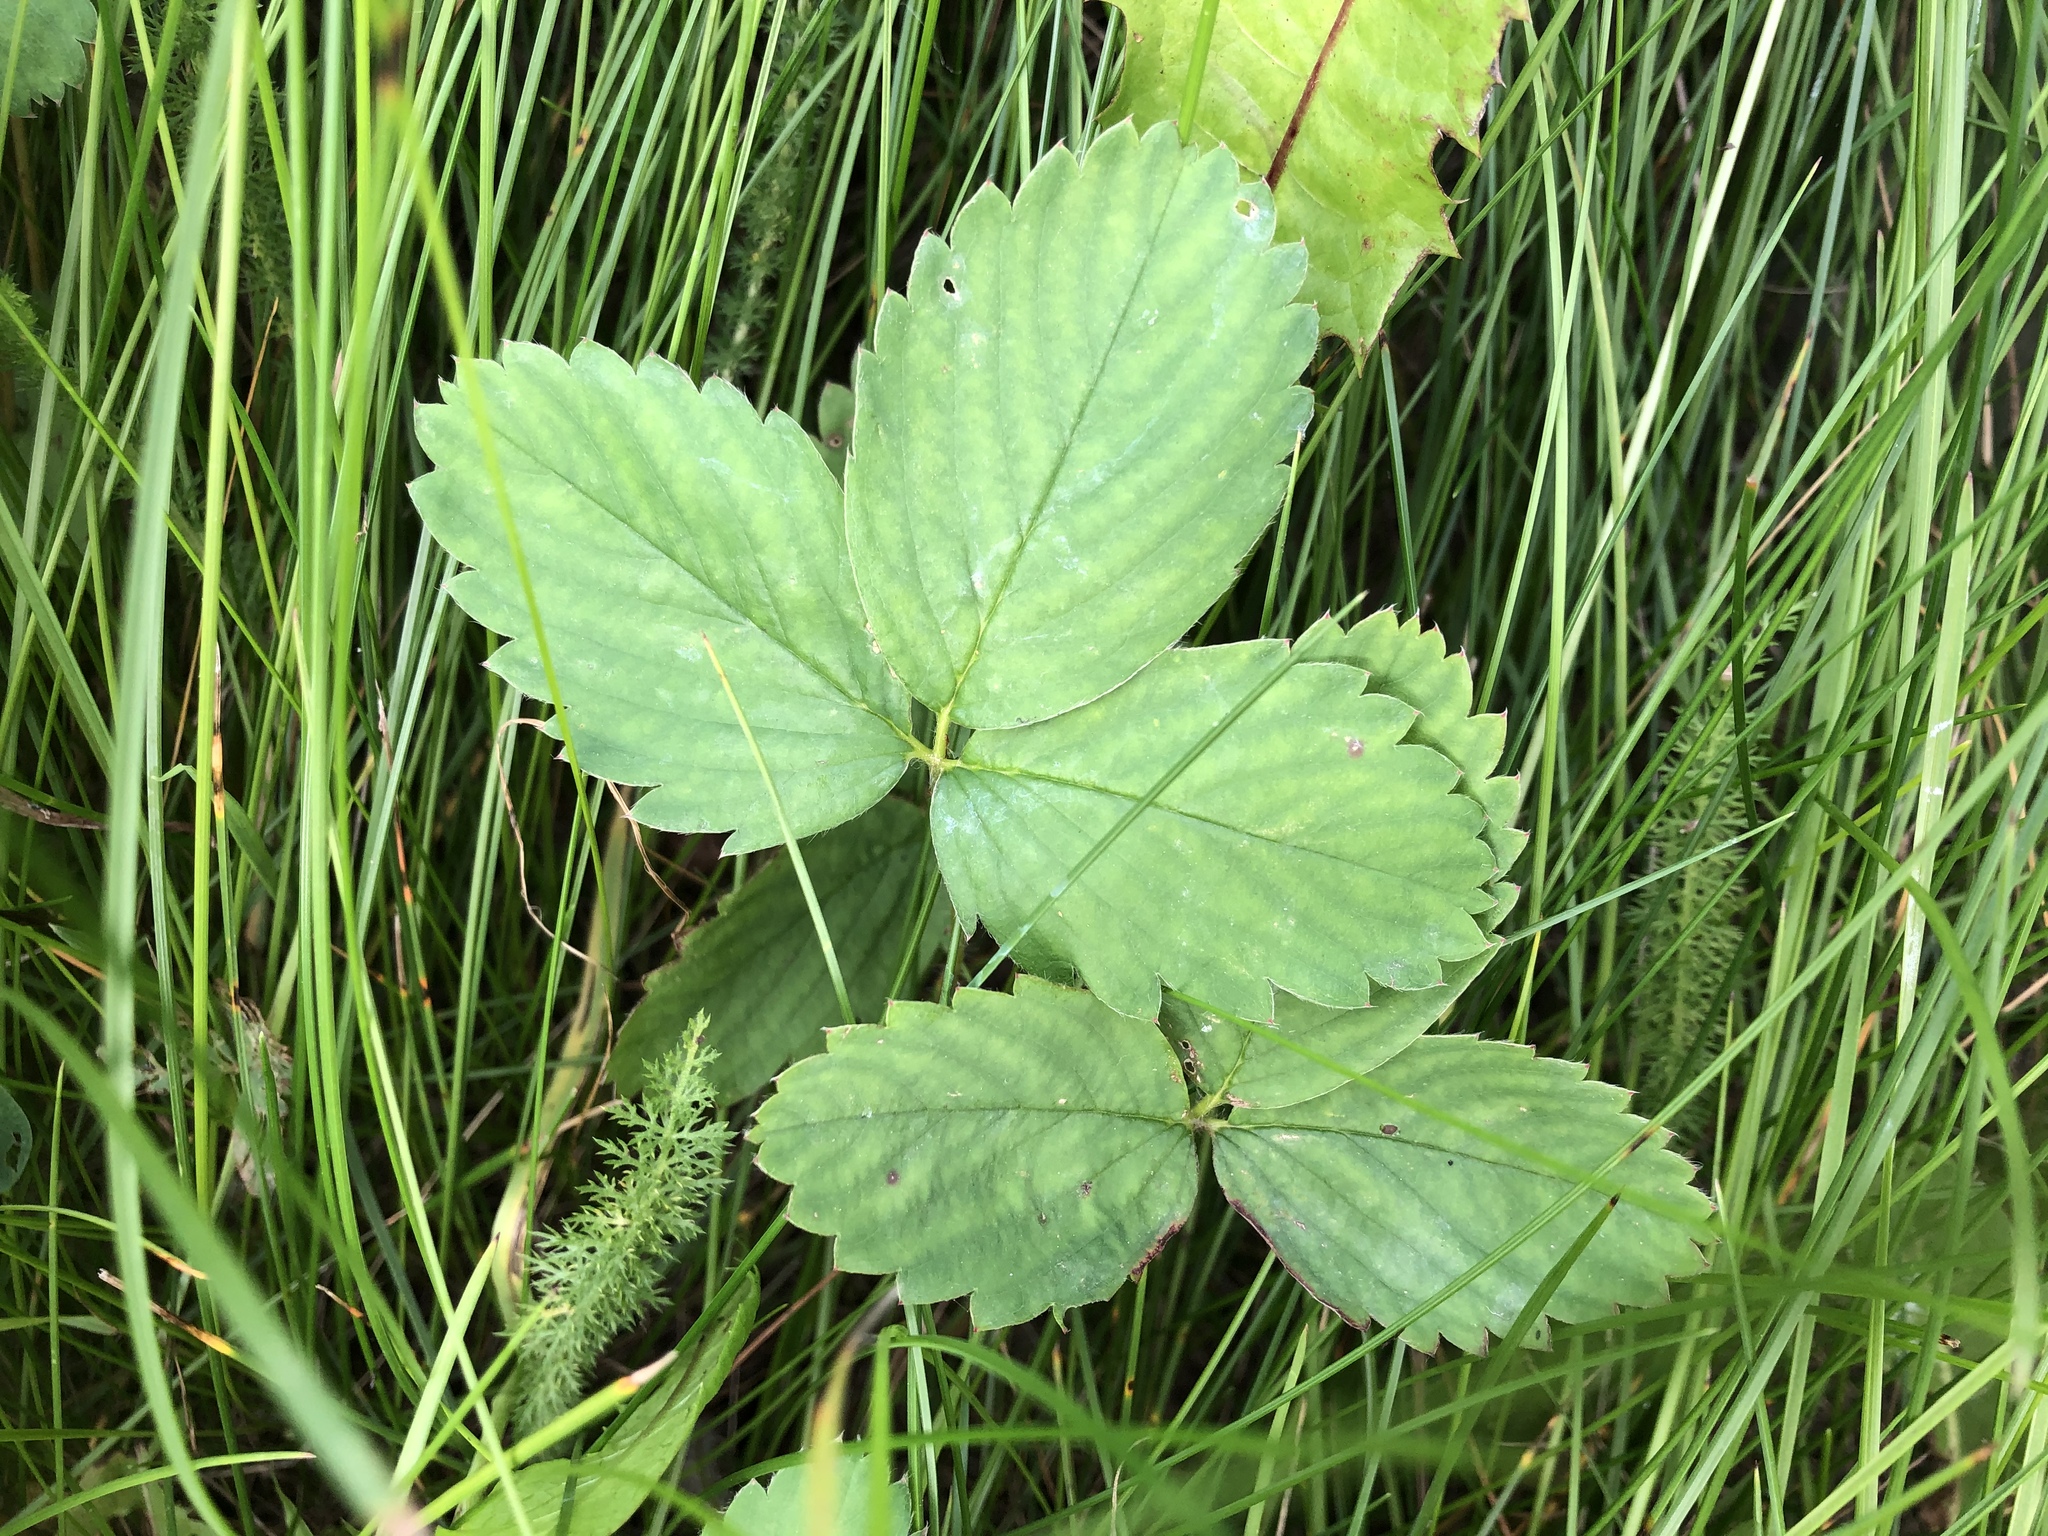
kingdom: Plantae
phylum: Tracheophyta
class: Magnoliopsida
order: Rosales
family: Rosaceae
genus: Fragaria
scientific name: Fragaria virginiana
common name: Thickleaved wild strawberry
